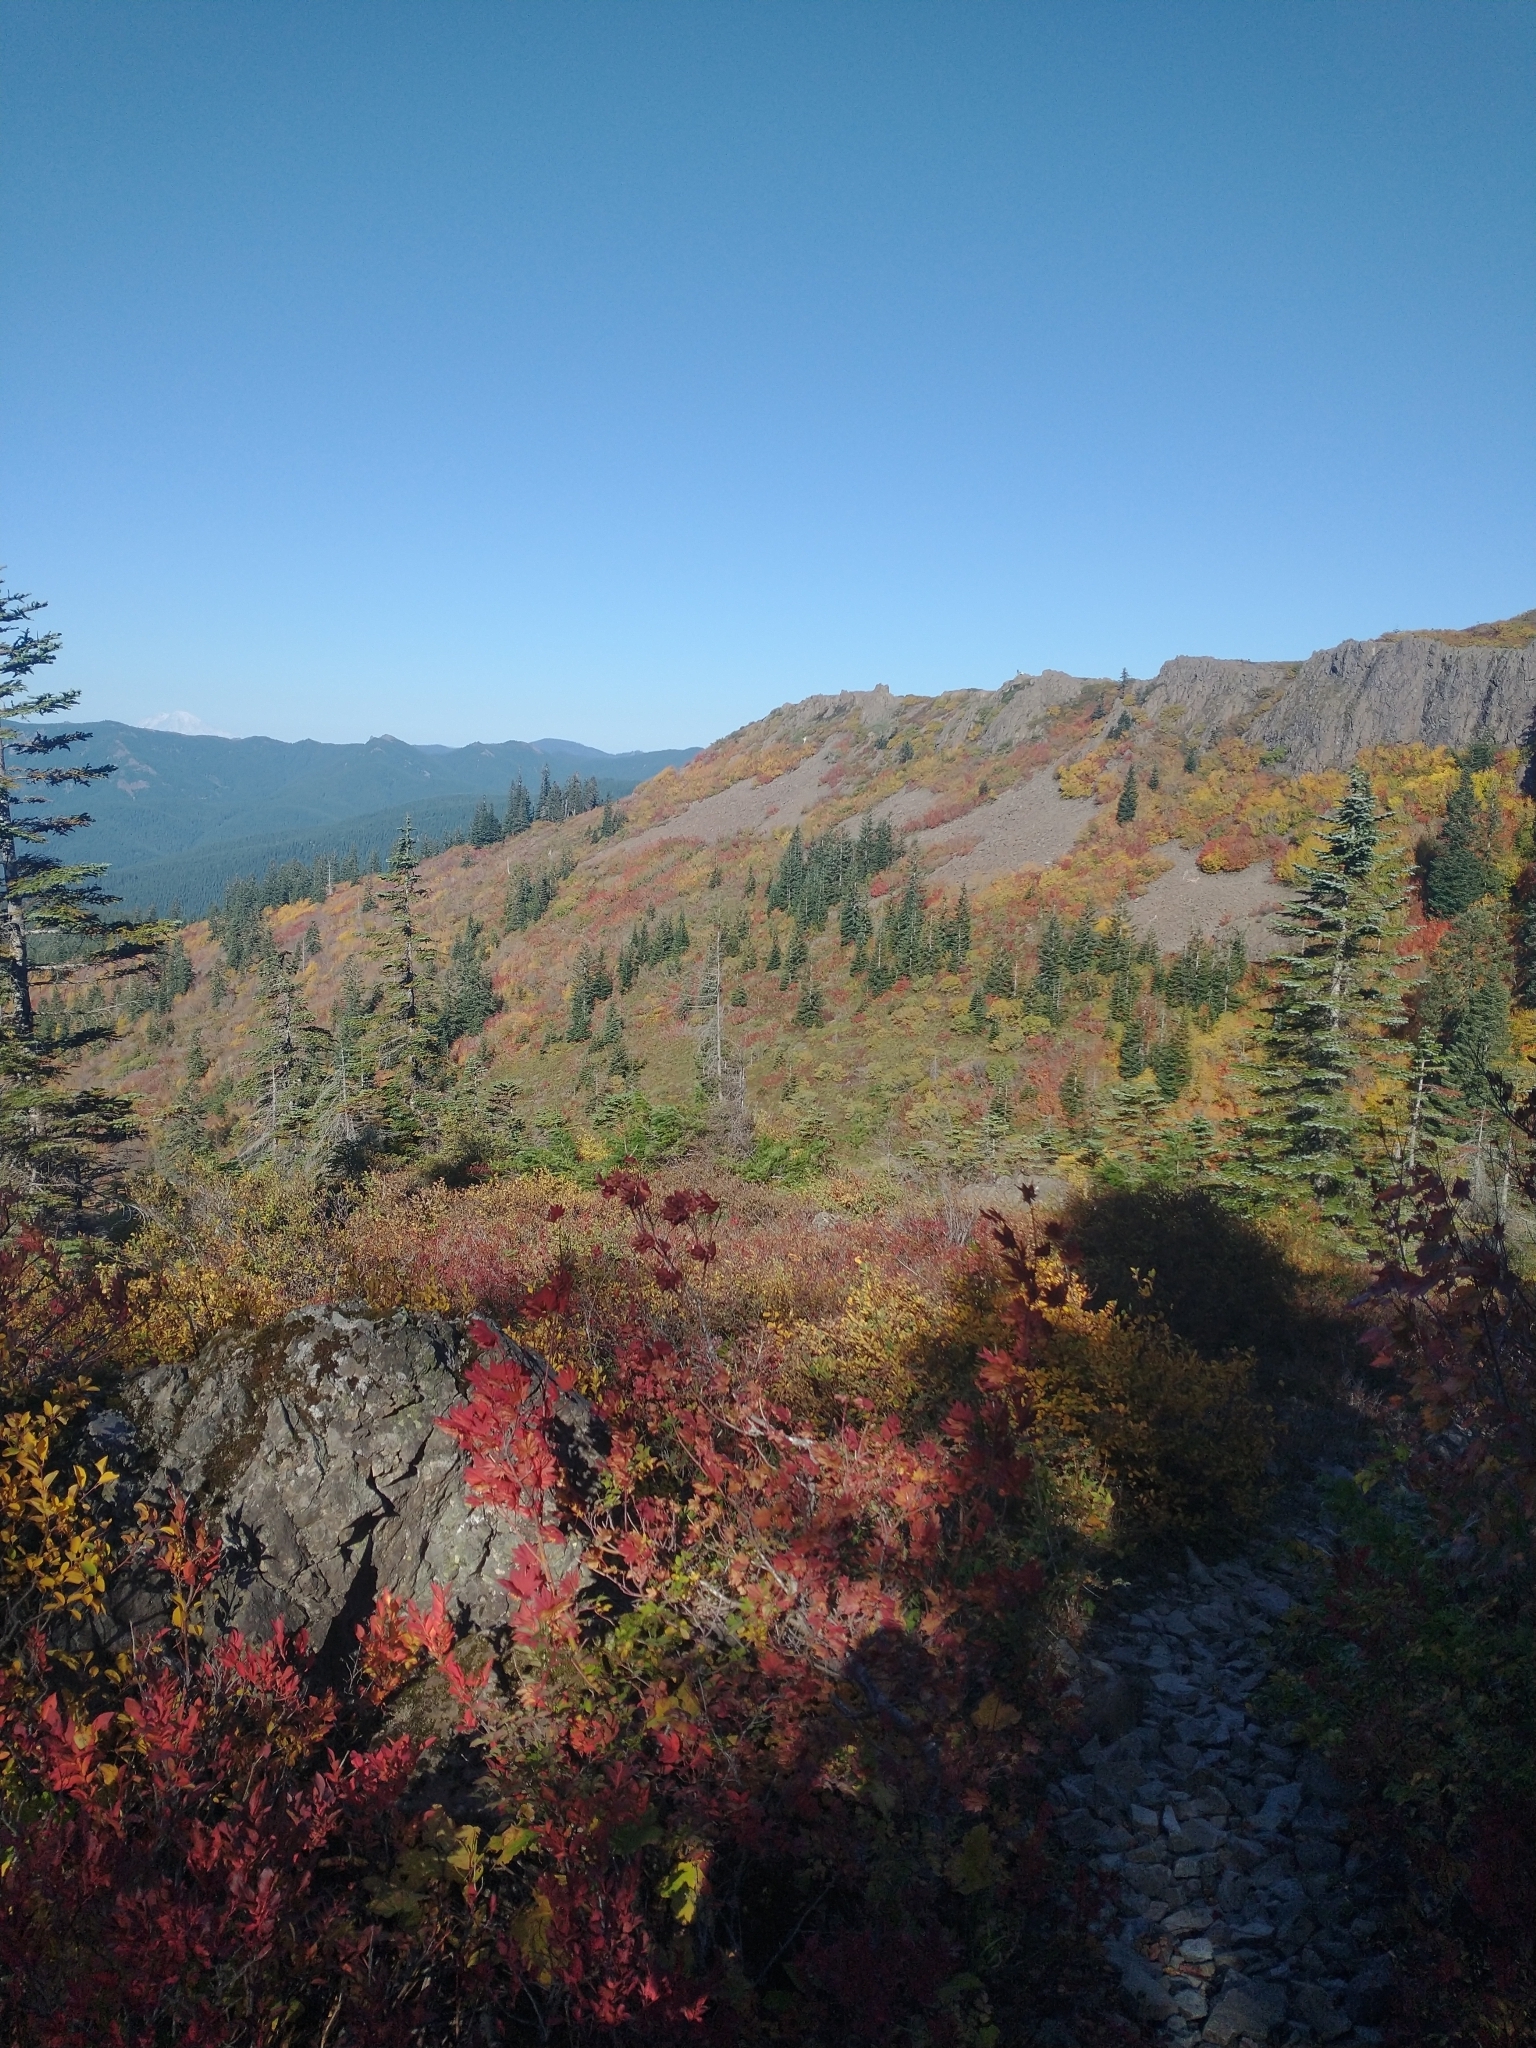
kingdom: Plantae
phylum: Tracheophyta
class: Pinopsida
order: Pinales
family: Pinaceae
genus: Abies
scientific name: Abies procera
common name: Noble fir
